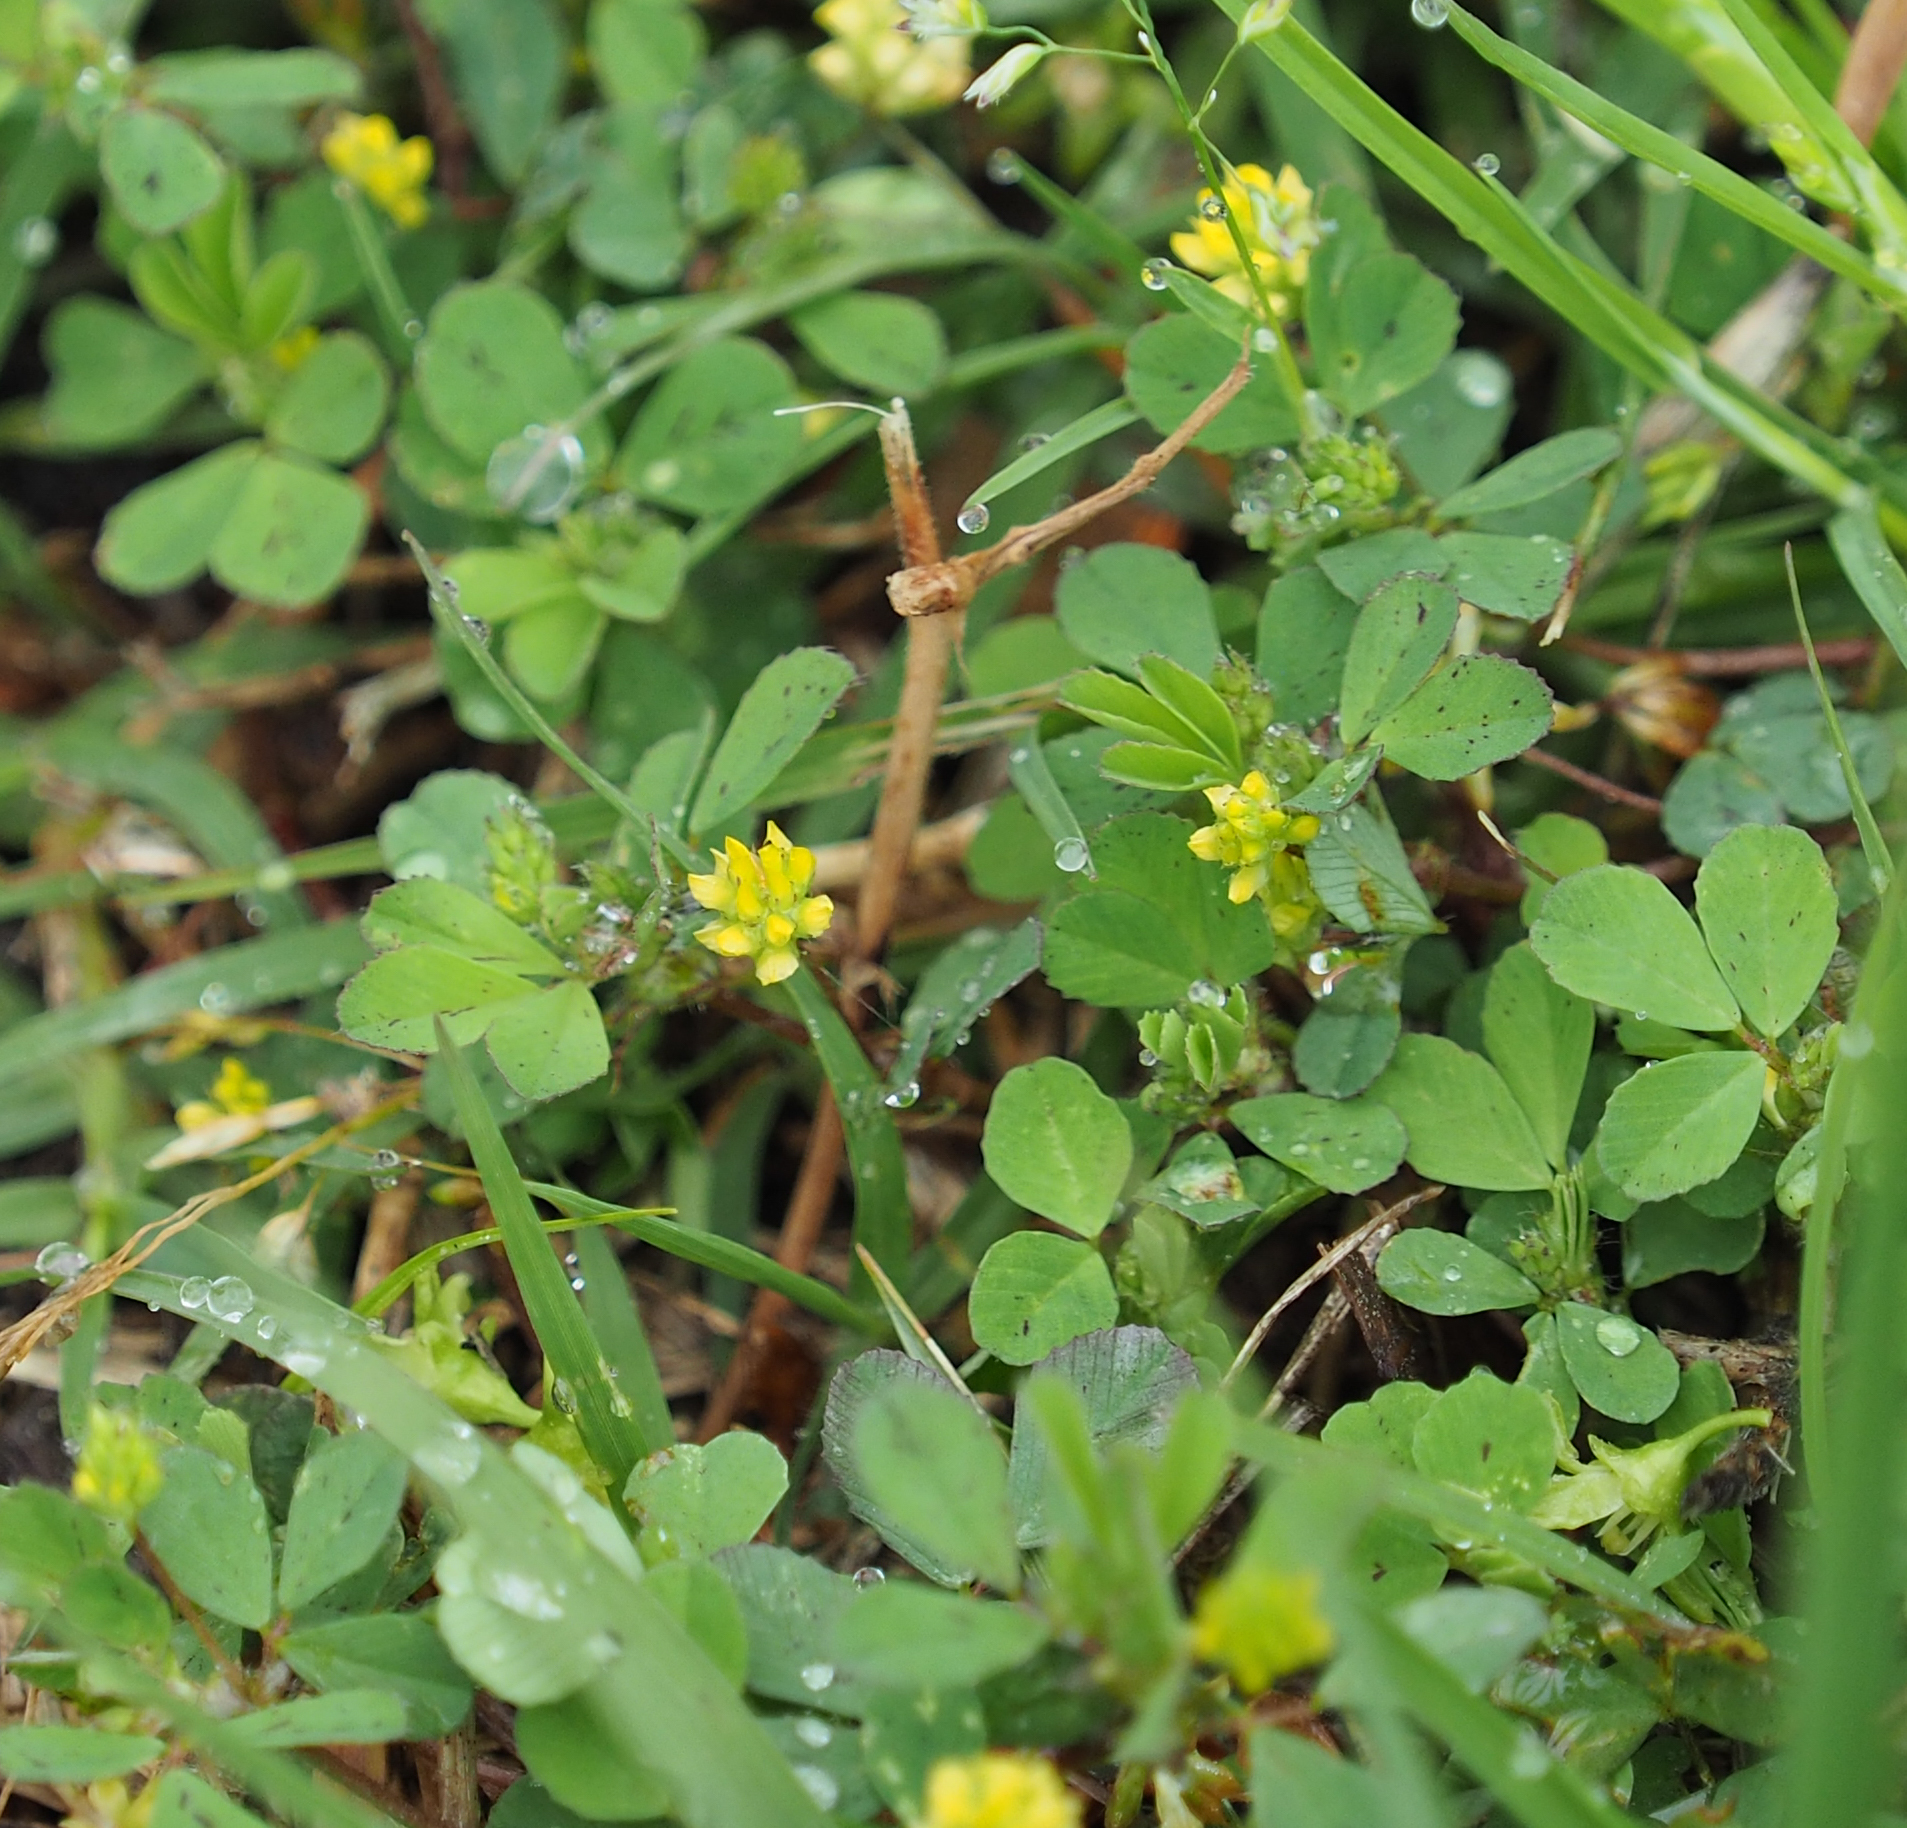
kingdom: Plantae
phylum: Tracheophyta
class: Magnoliopsida
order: Fabales
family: Fabaceae
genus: Trifolium
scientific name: Trifolium dubium
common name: Suckling clover
